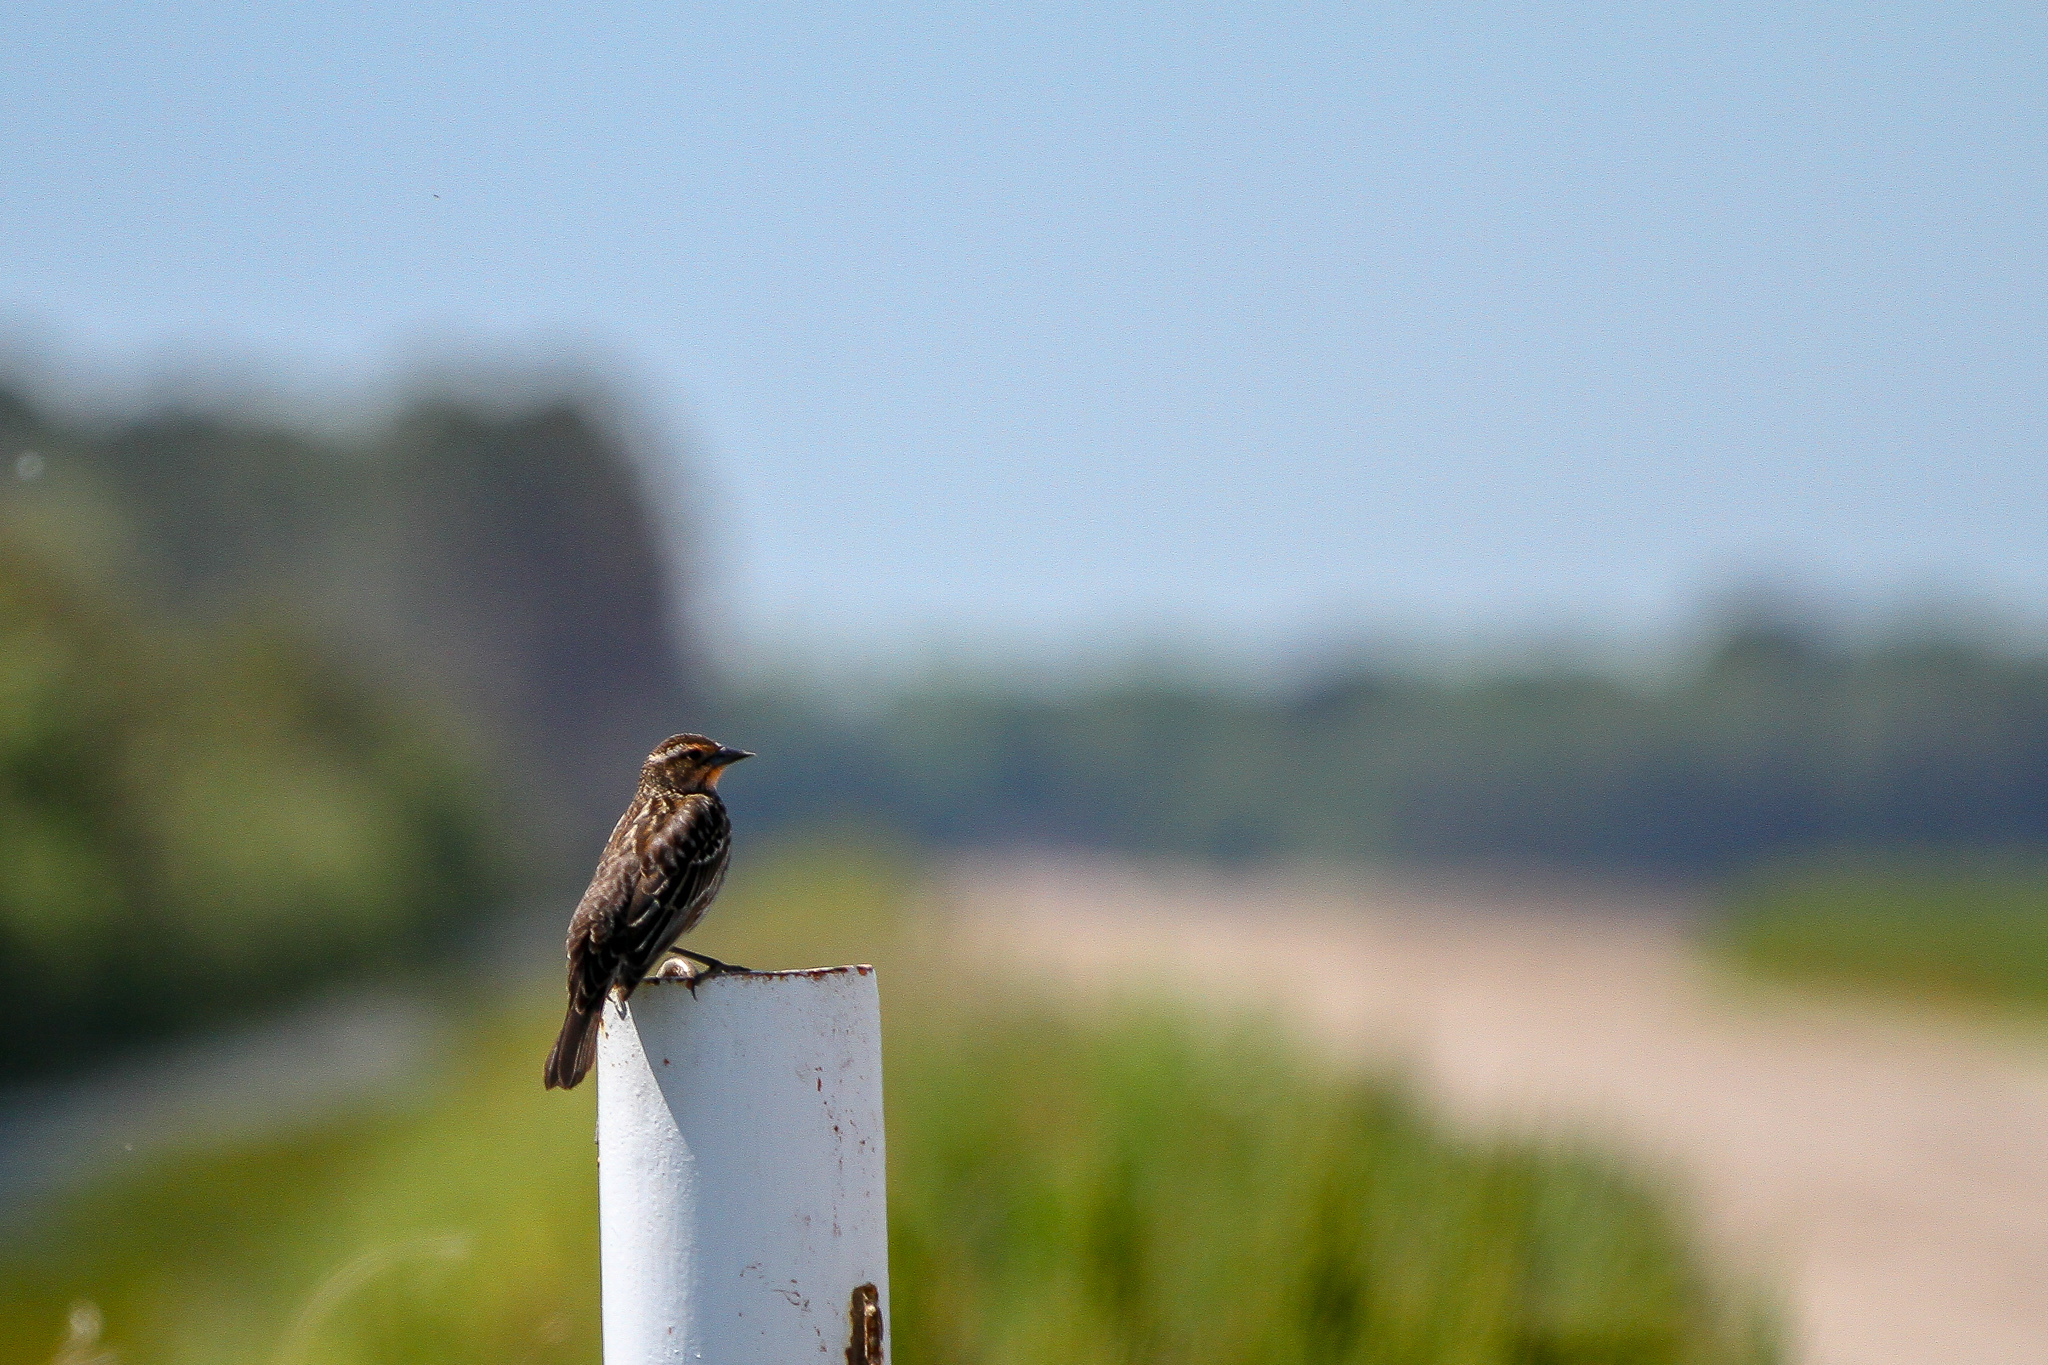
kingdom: Animalia
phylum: Chordata
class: Aves
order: Passeriformes
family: Icteridae
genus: Agelaius
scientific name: Agelaius phoeniceus
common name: Red-winged blackbird
